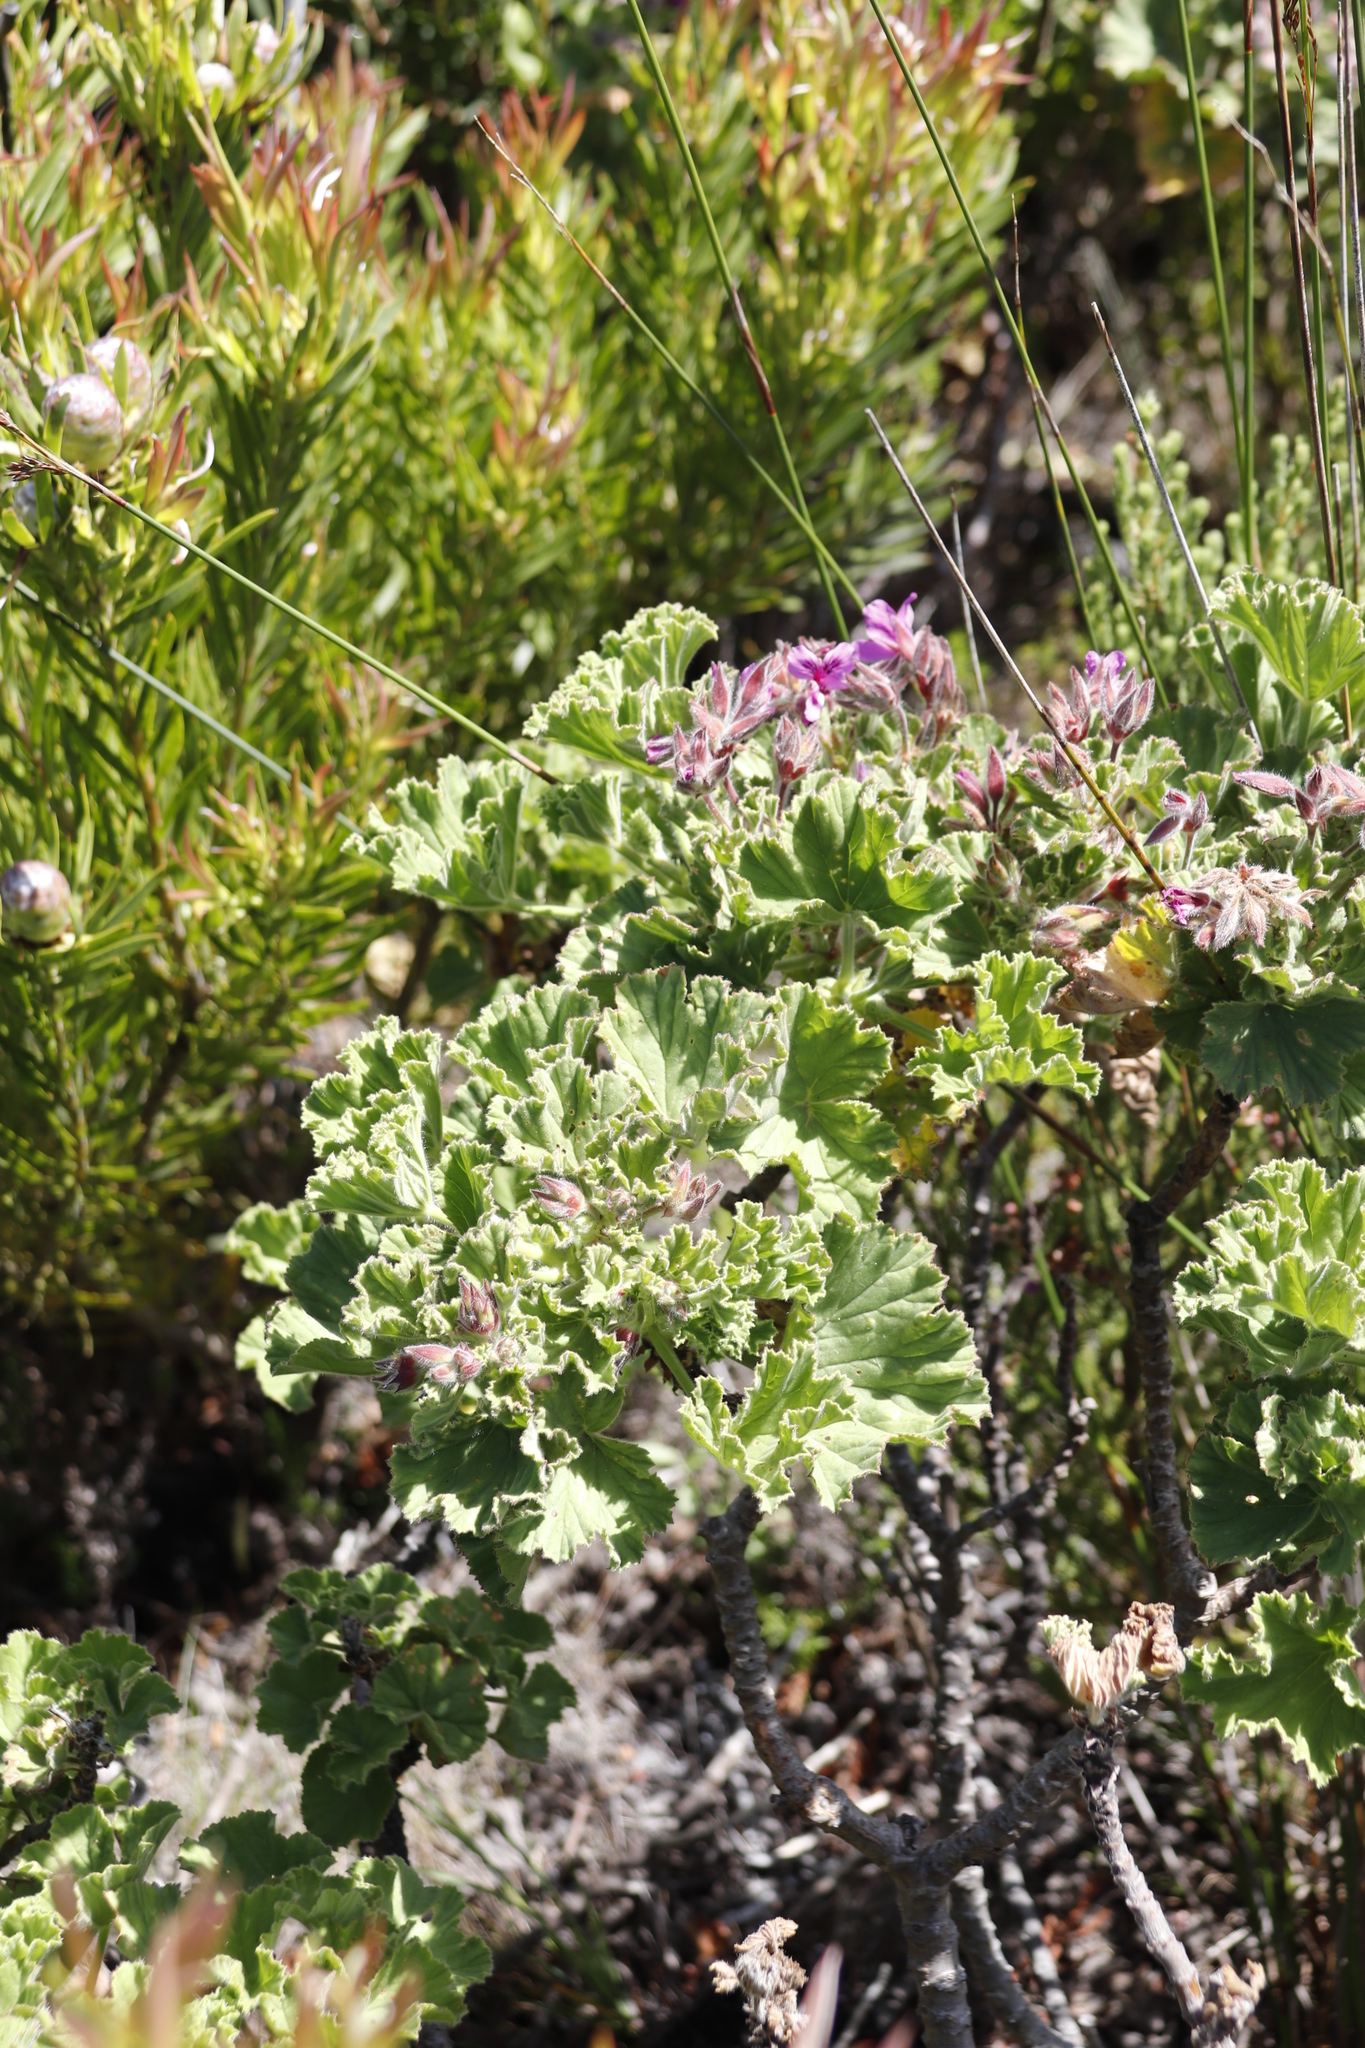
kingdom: Plantae
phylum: Tracheophyta
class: Magnoliopsida
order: Geraniales
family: Geraniaceae
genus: Pelargonium
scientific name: Pelargonium cucullatum
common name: Tree pelargonium
